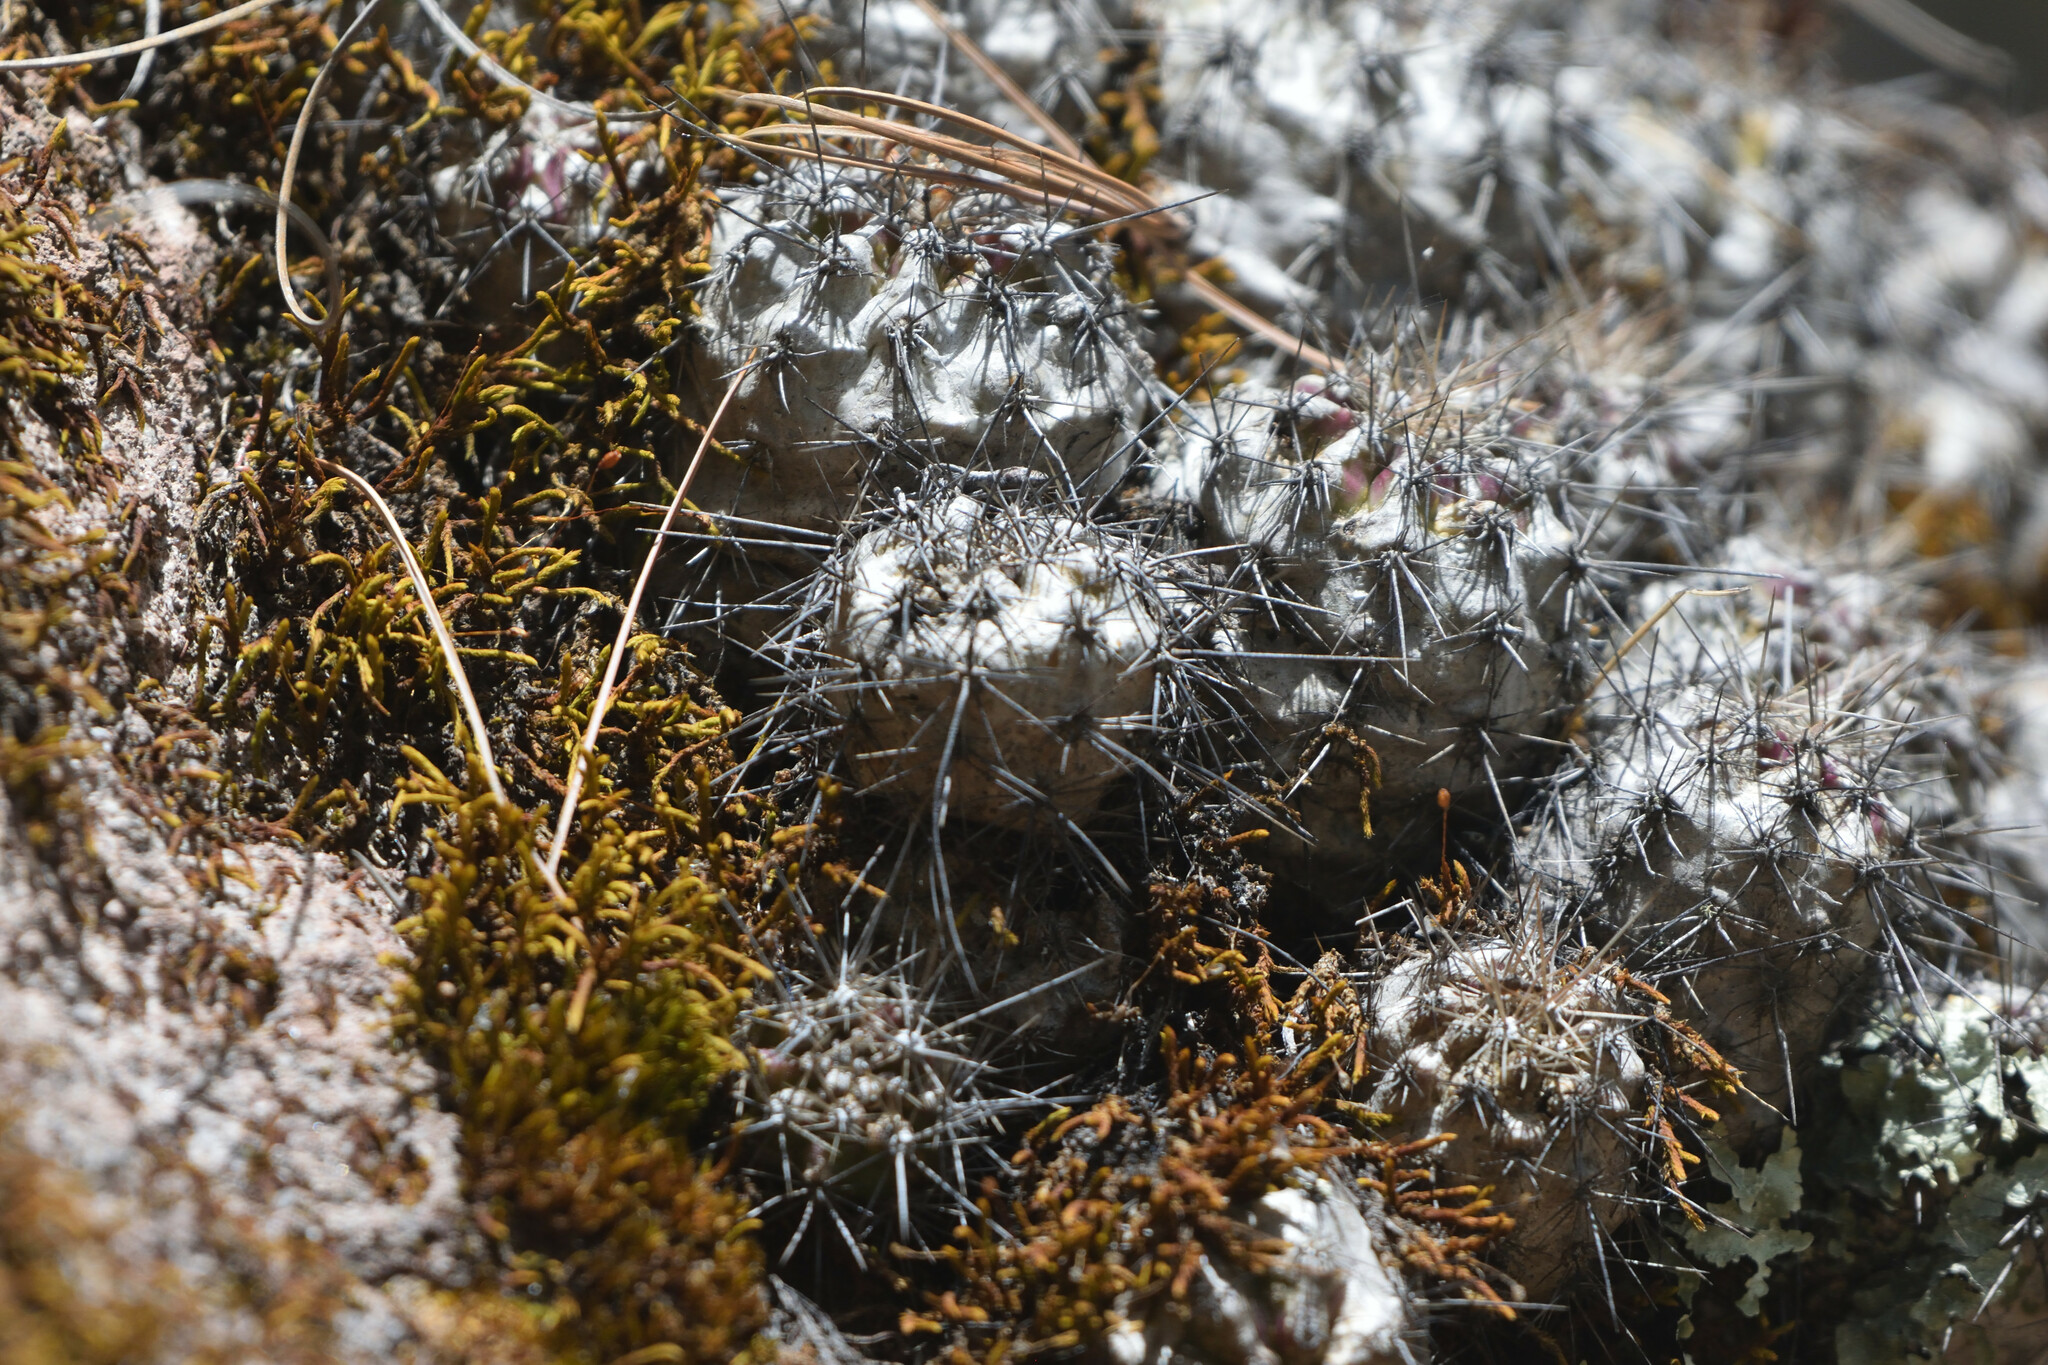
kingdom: Plantae
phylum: Tracheophyta
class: Magnoliopsida
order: Caryophyllales
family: Cactaceae
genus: Echinocereus
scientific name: Echinocereus polyacanthus
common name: Mojave mound cactus
